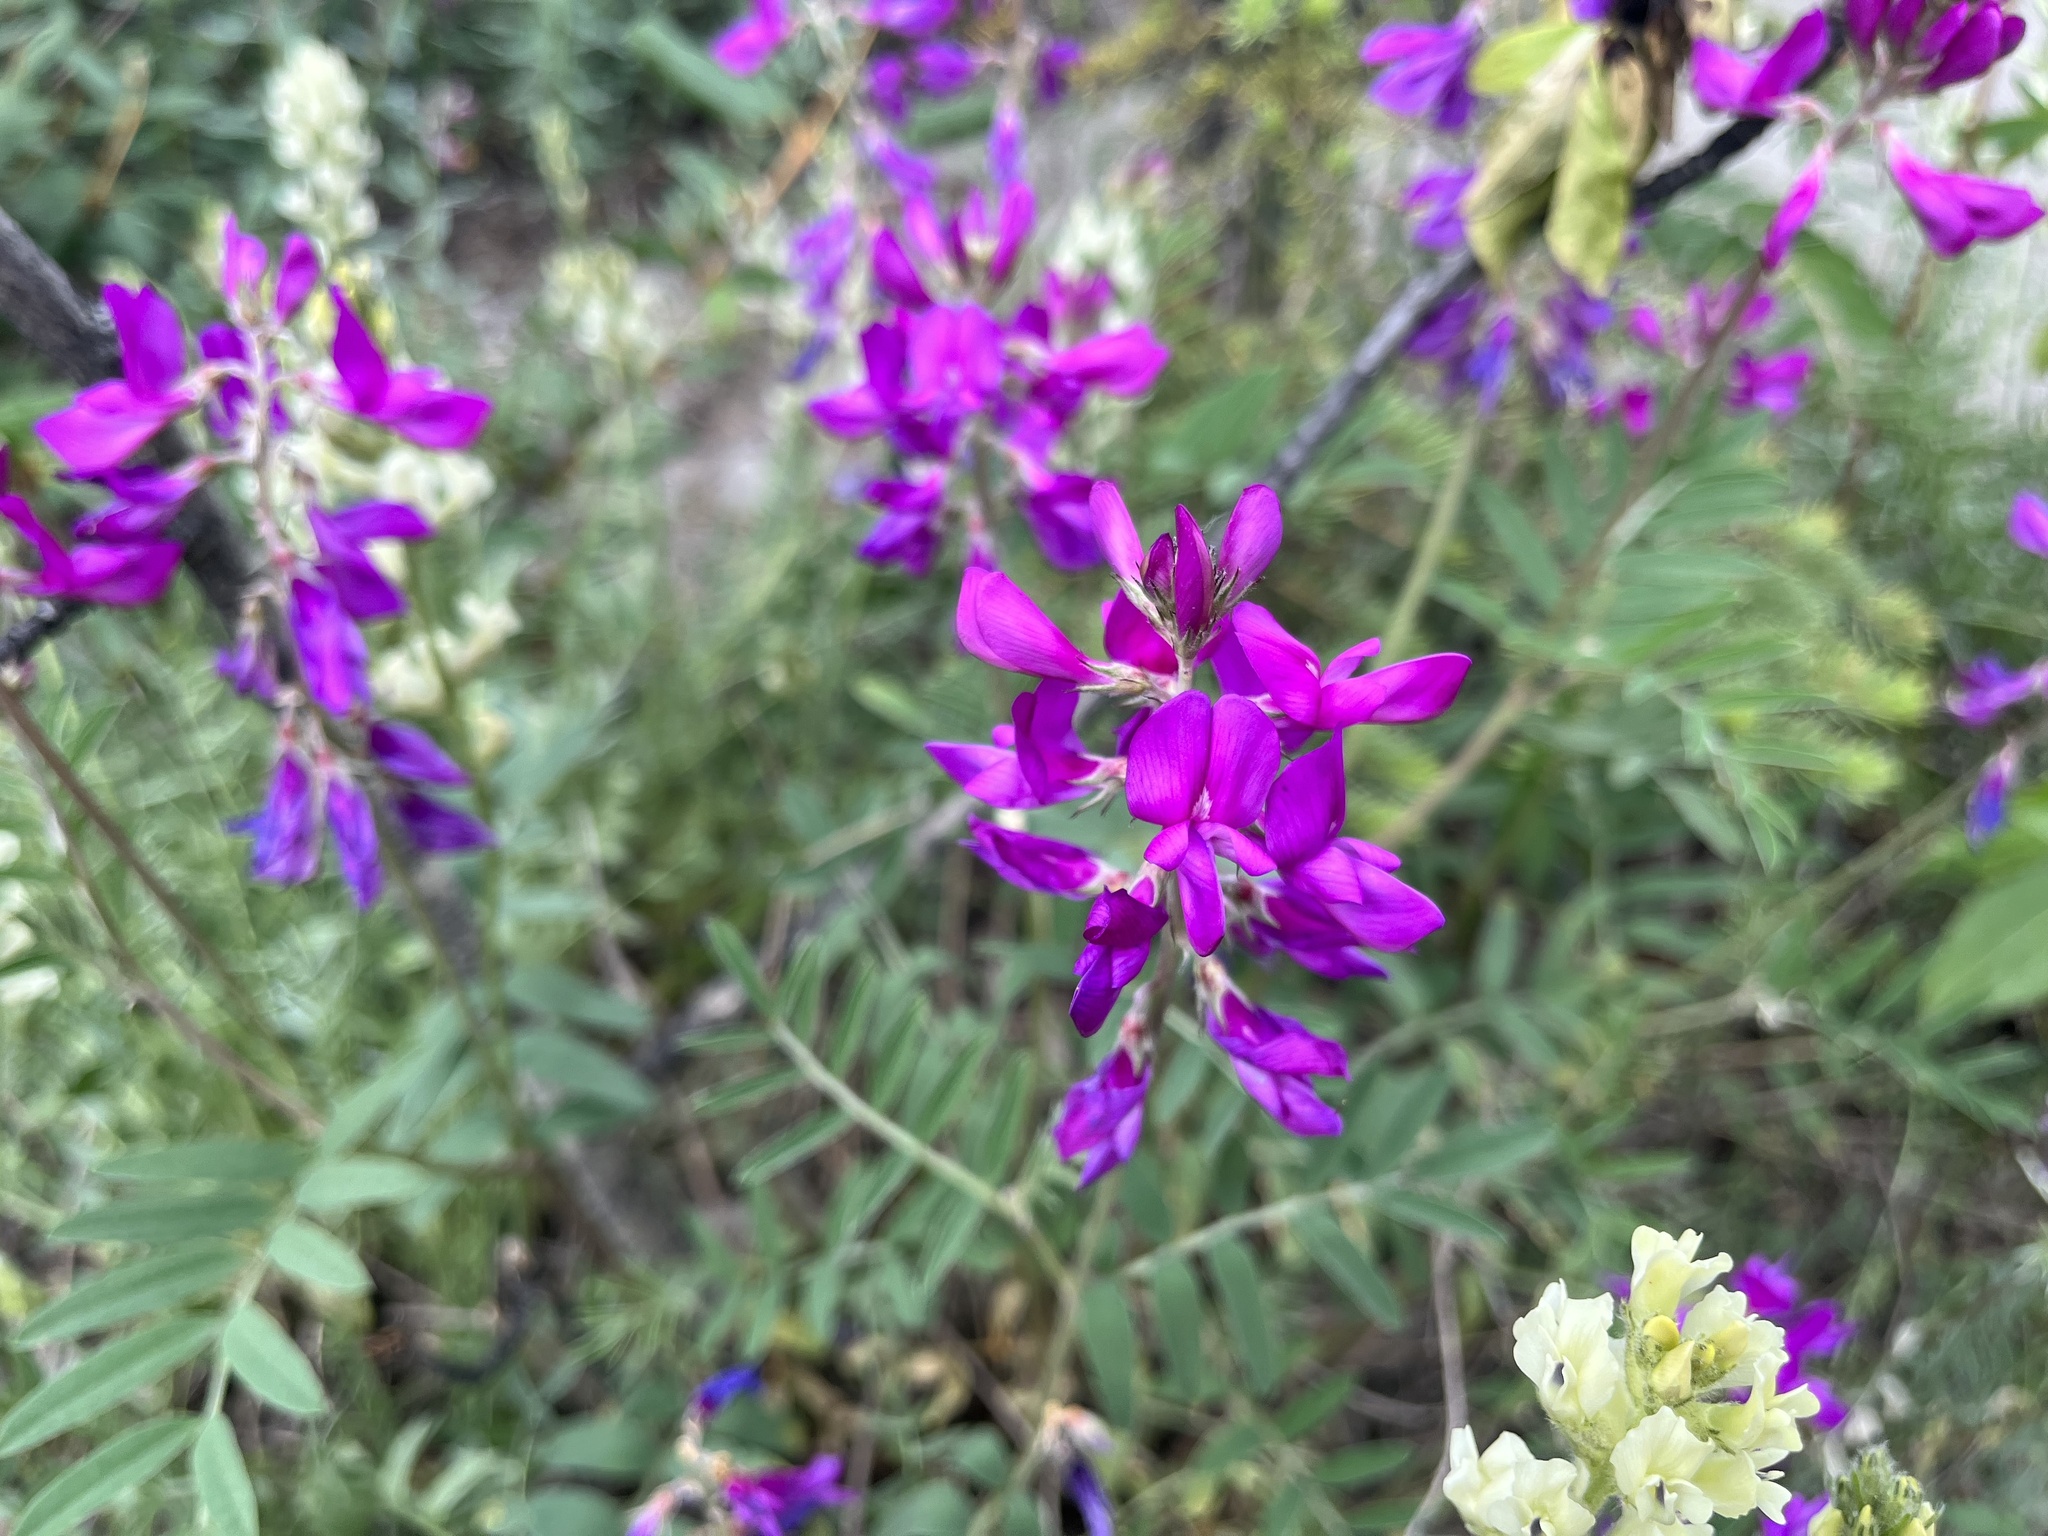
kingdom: Plantae
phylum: Tracheophyta
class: Magnoliopsida
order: Fabales
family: Fabaceae
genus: Hedysarum
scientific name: Hedysarum boreale
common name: Northern sweet-vetch
